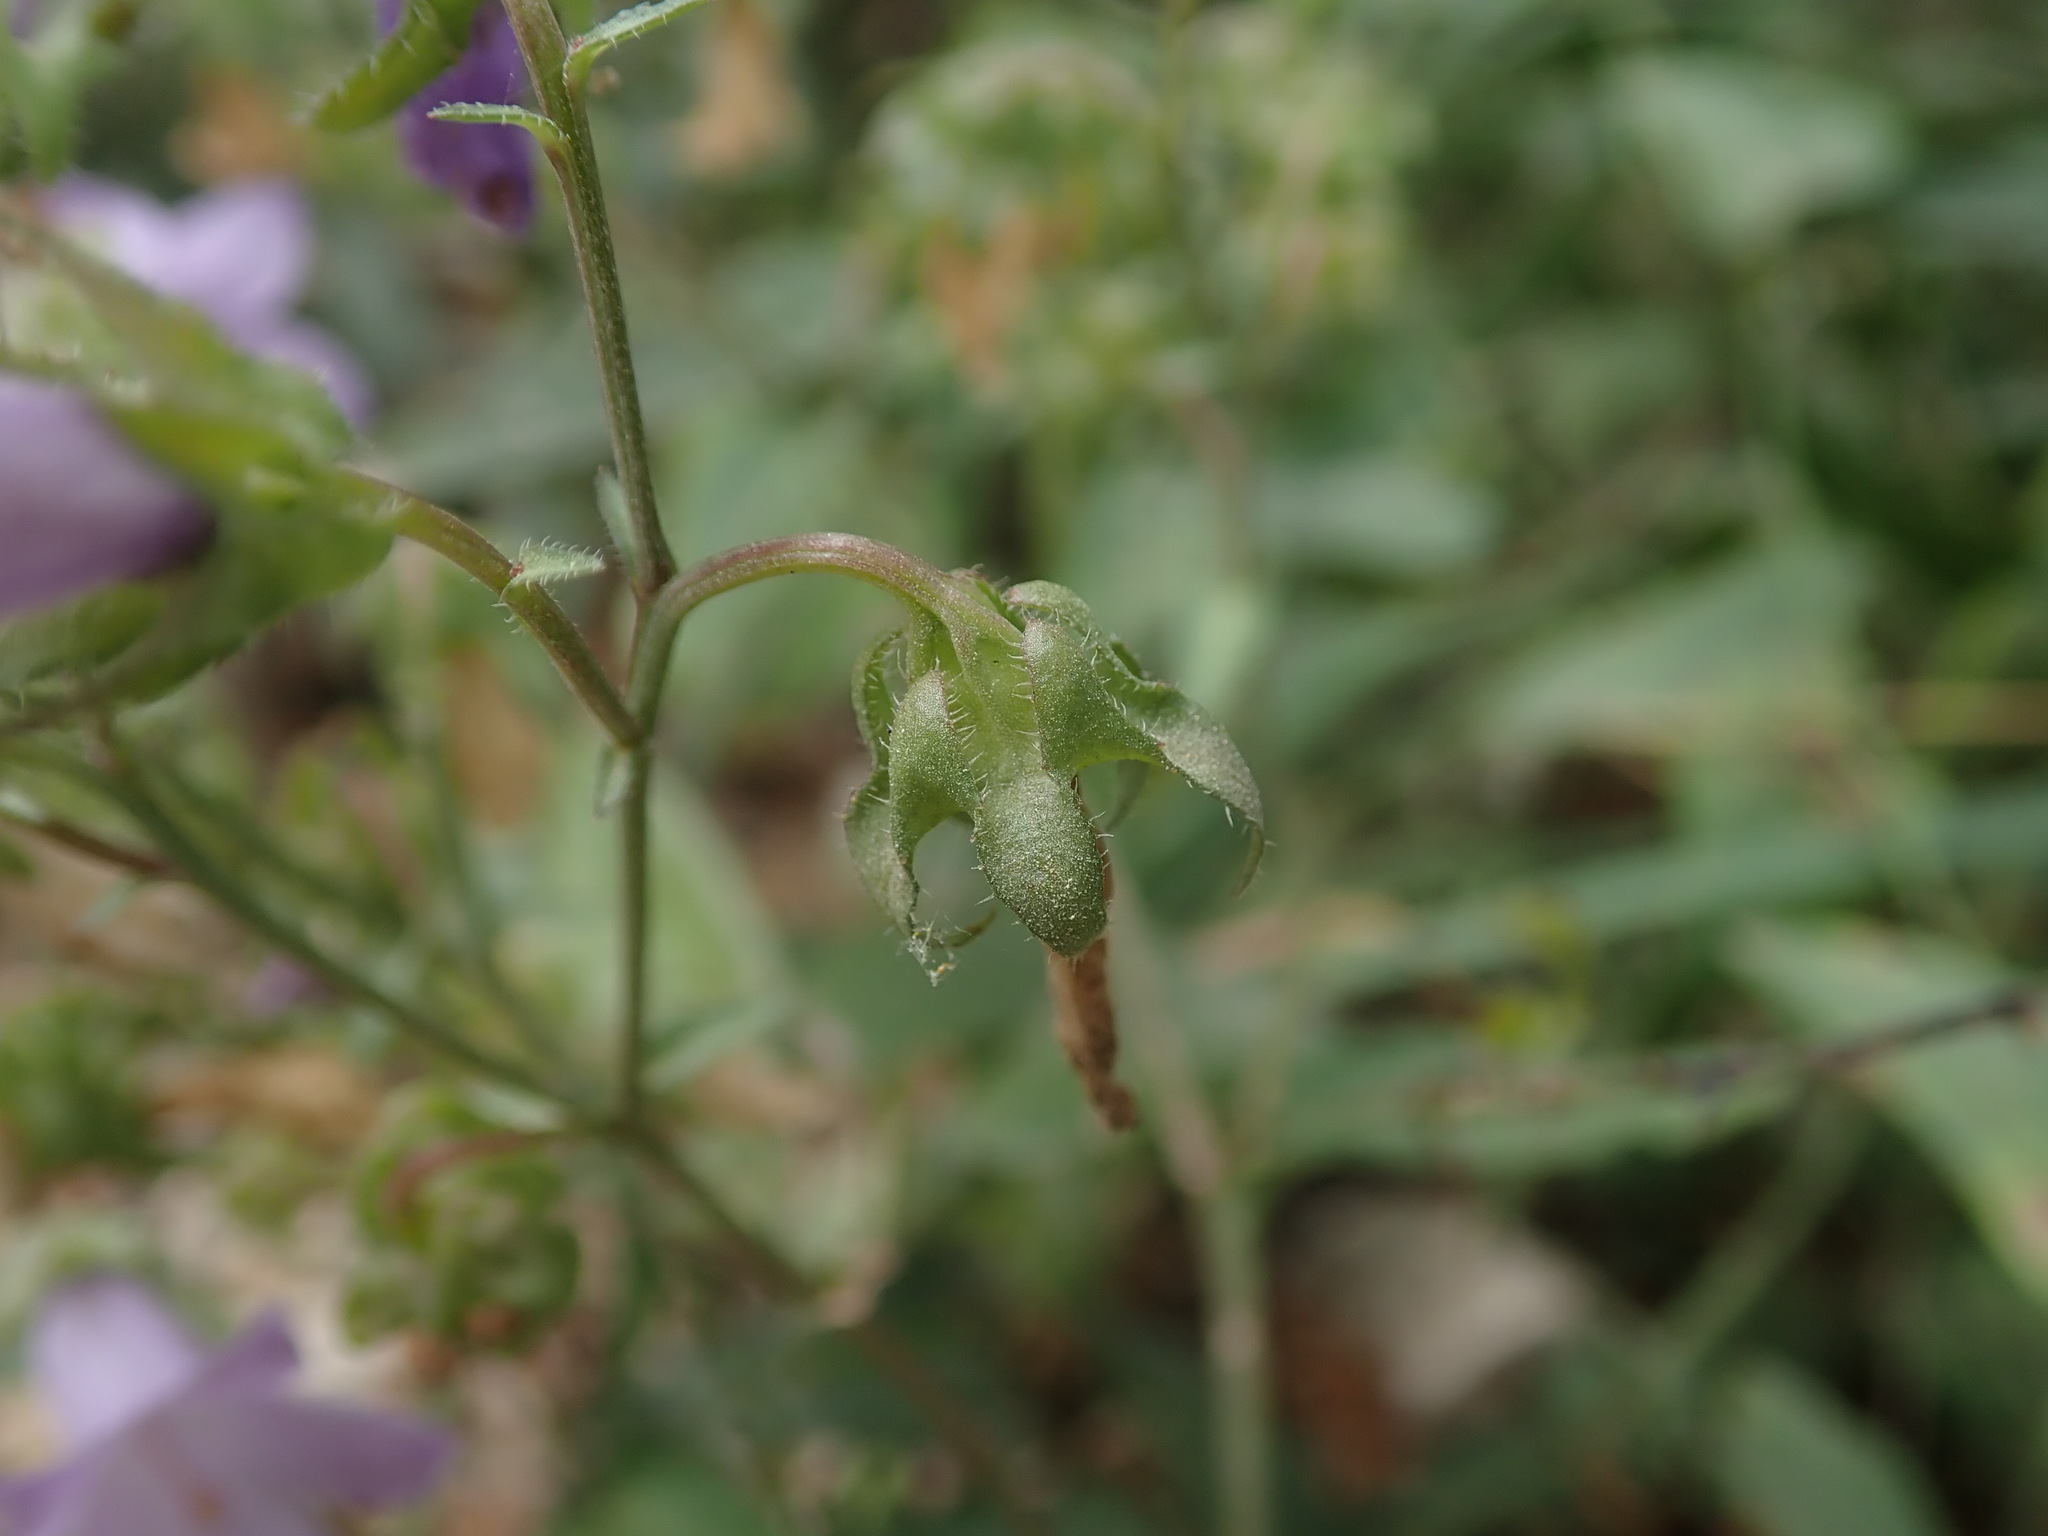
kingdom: Plantae
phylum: Tracheophyta
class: Magnoliopsida
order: Asterales
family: Campanulaceae
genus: Campanula
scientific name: Campanula sibirica
